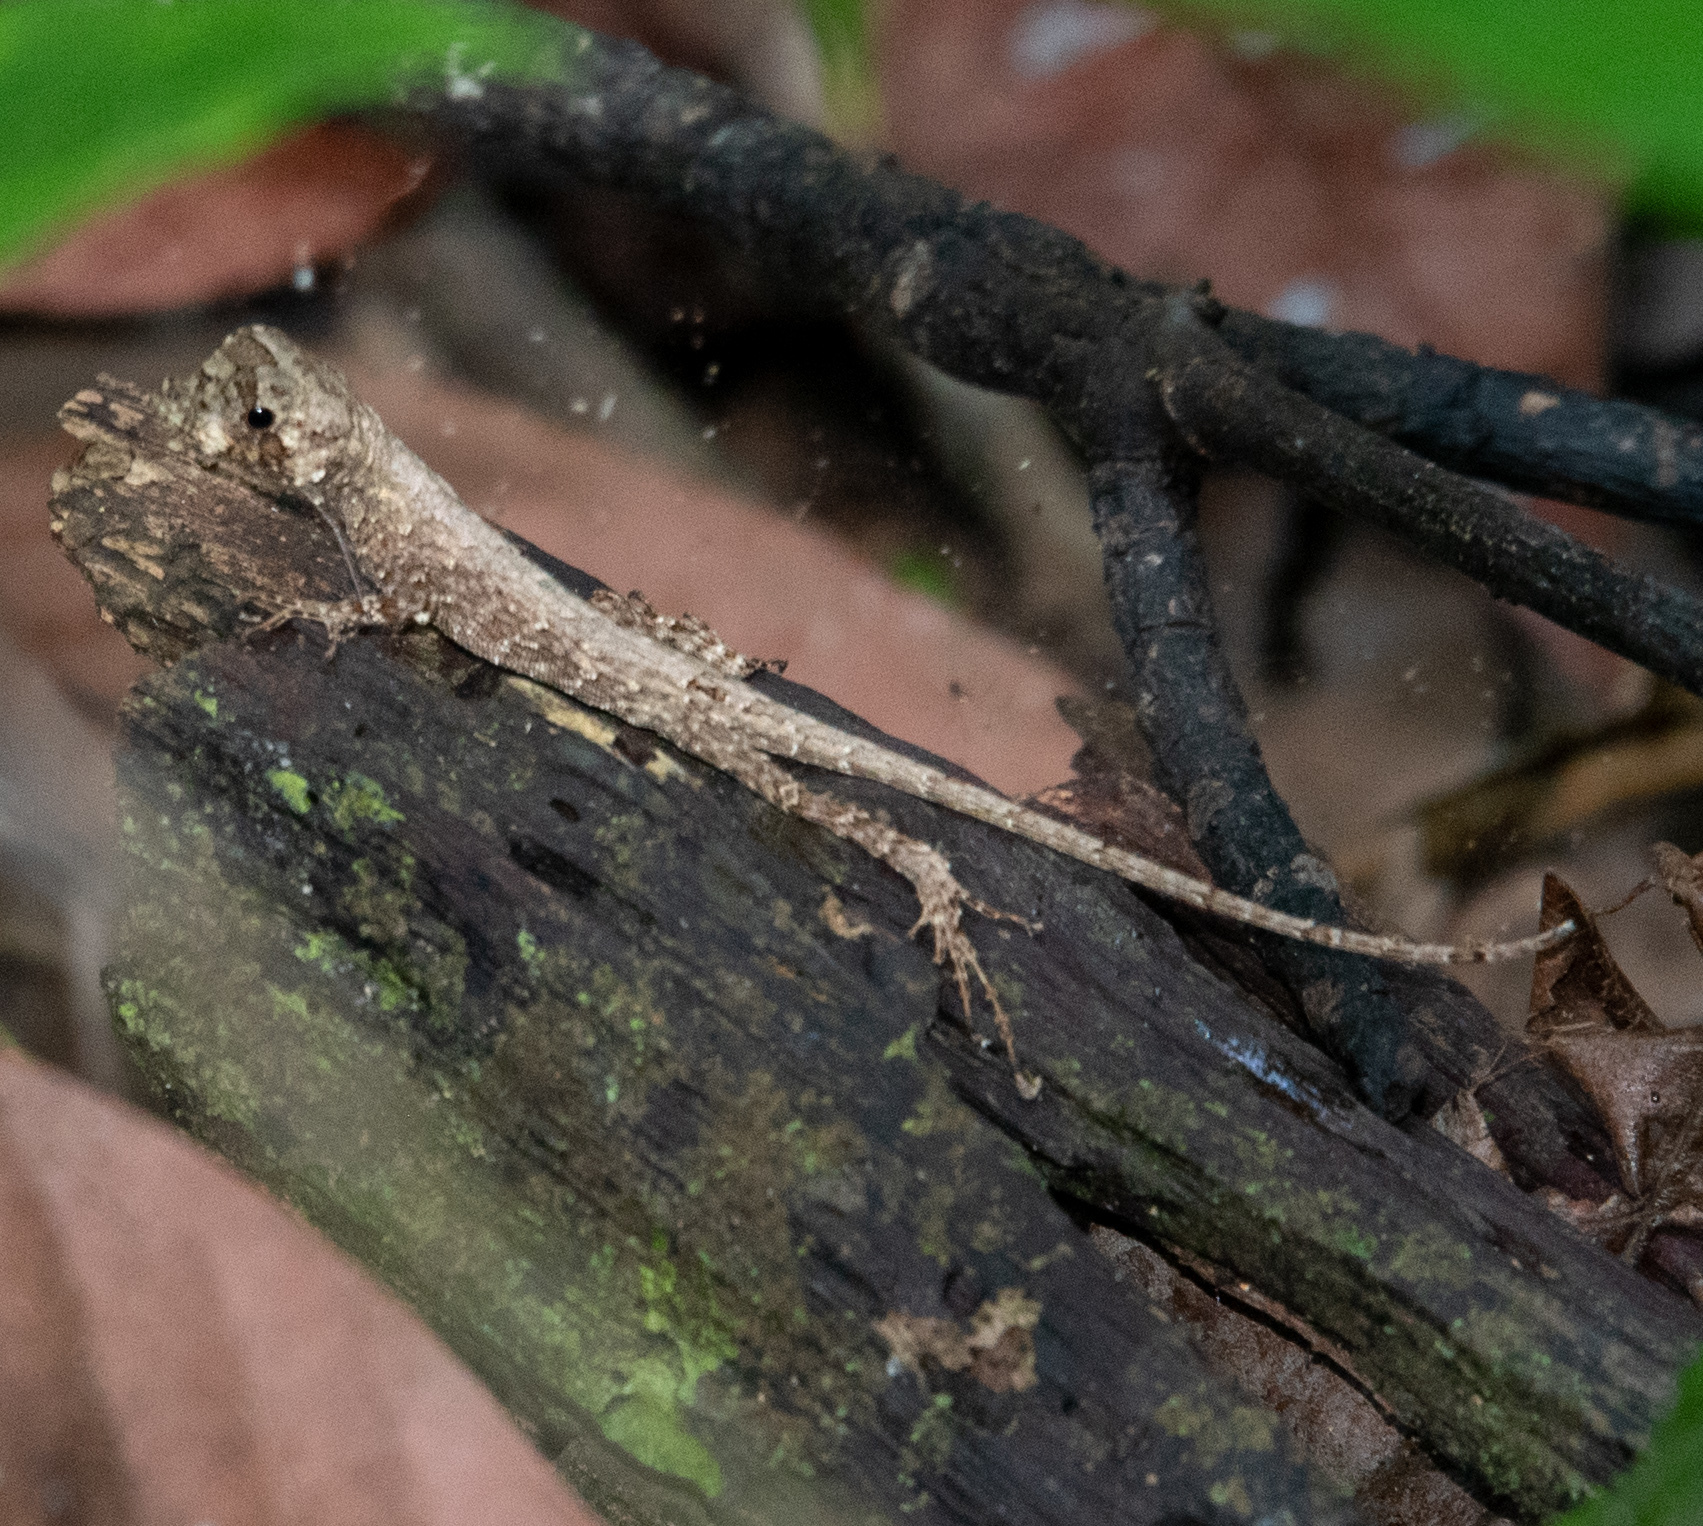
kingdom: Animalia
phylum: Chordata
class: Squamata
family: Dactyloidae
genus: Anolis
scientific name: Anolis capito
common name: Bighead anole
